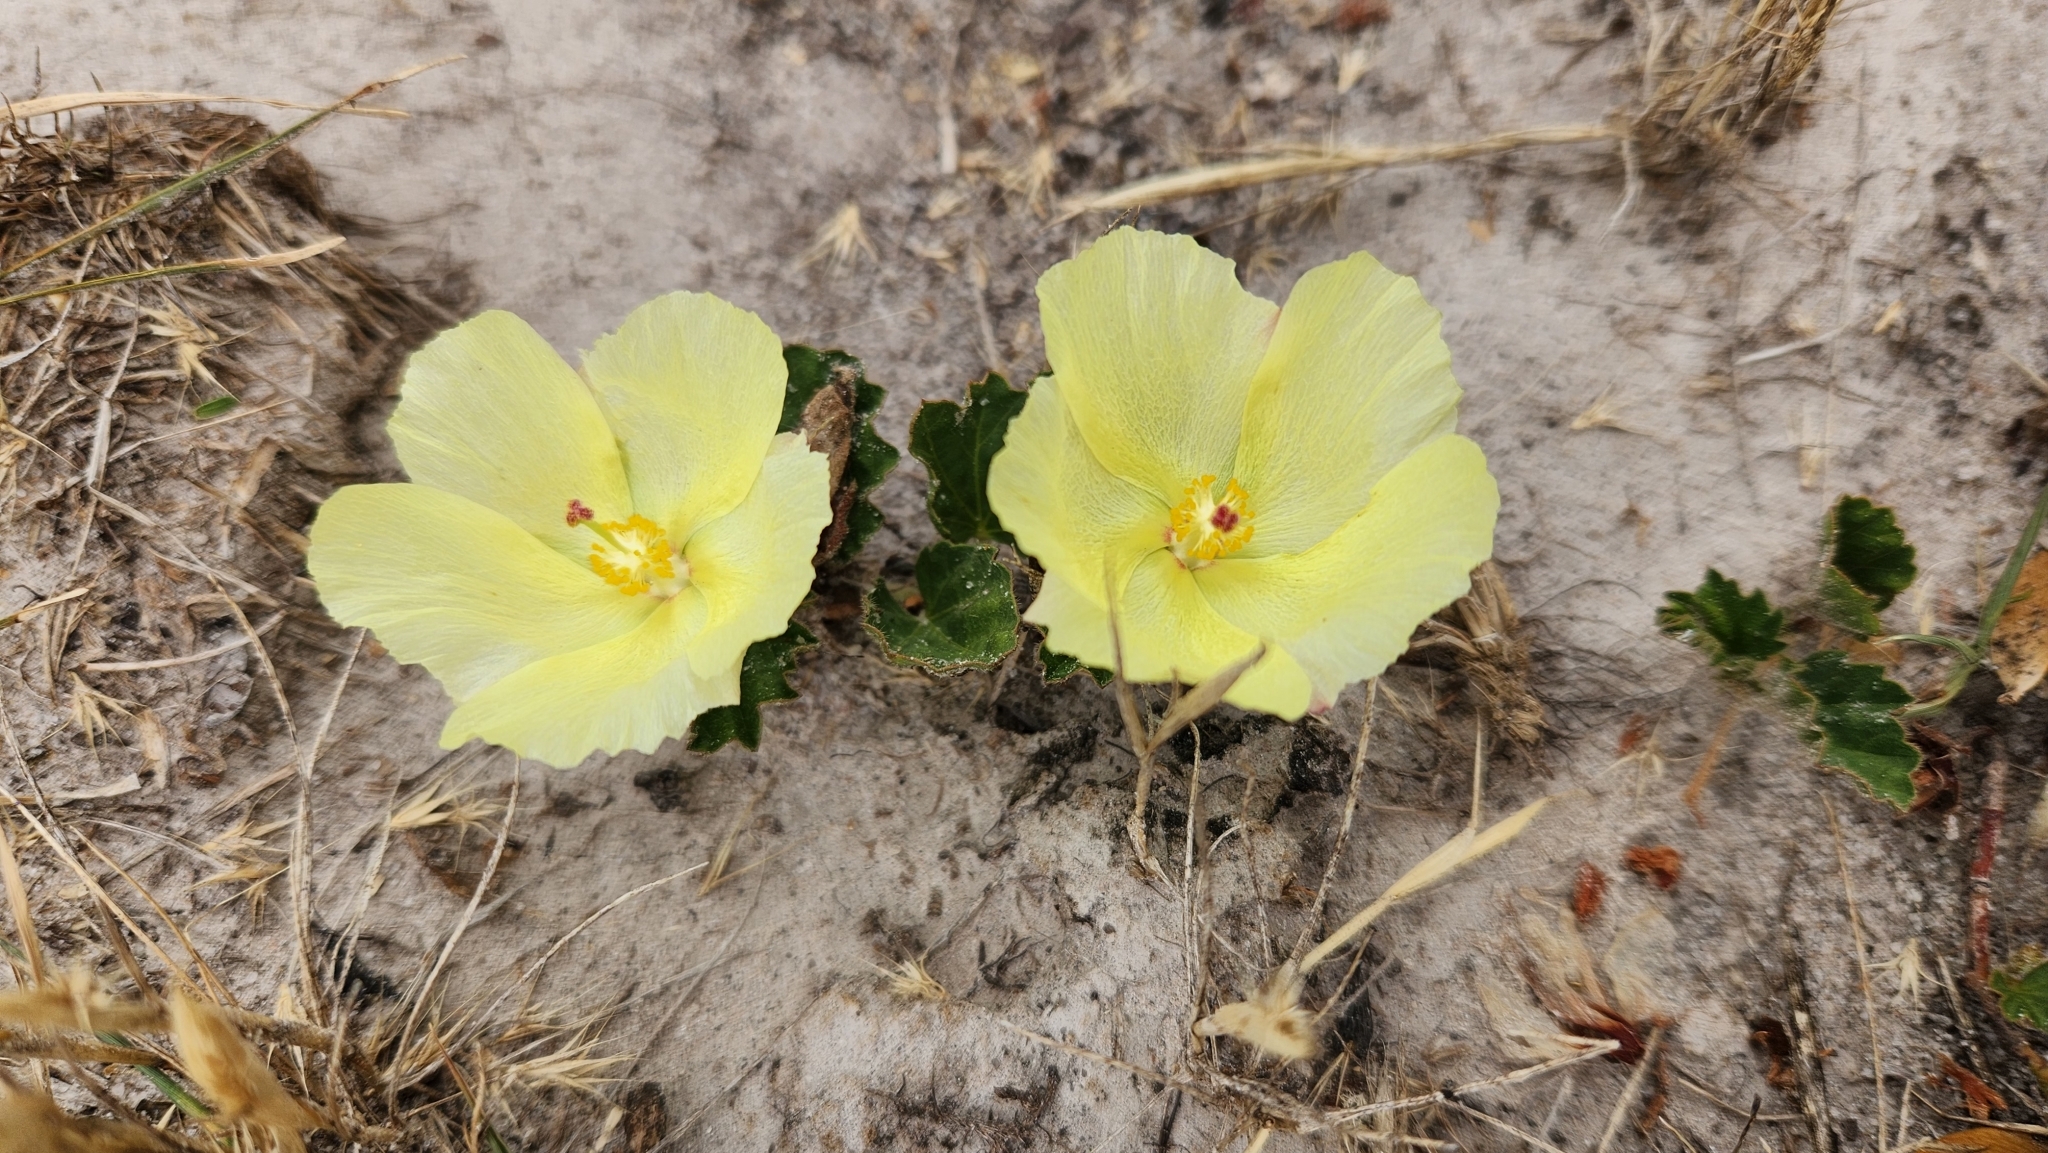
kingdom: Plantae
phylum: Tracheophyta
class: Magnoliopsida
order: Malvales
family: Malvaceae
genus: Cienfuegosia
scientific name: Cienfuegosia
